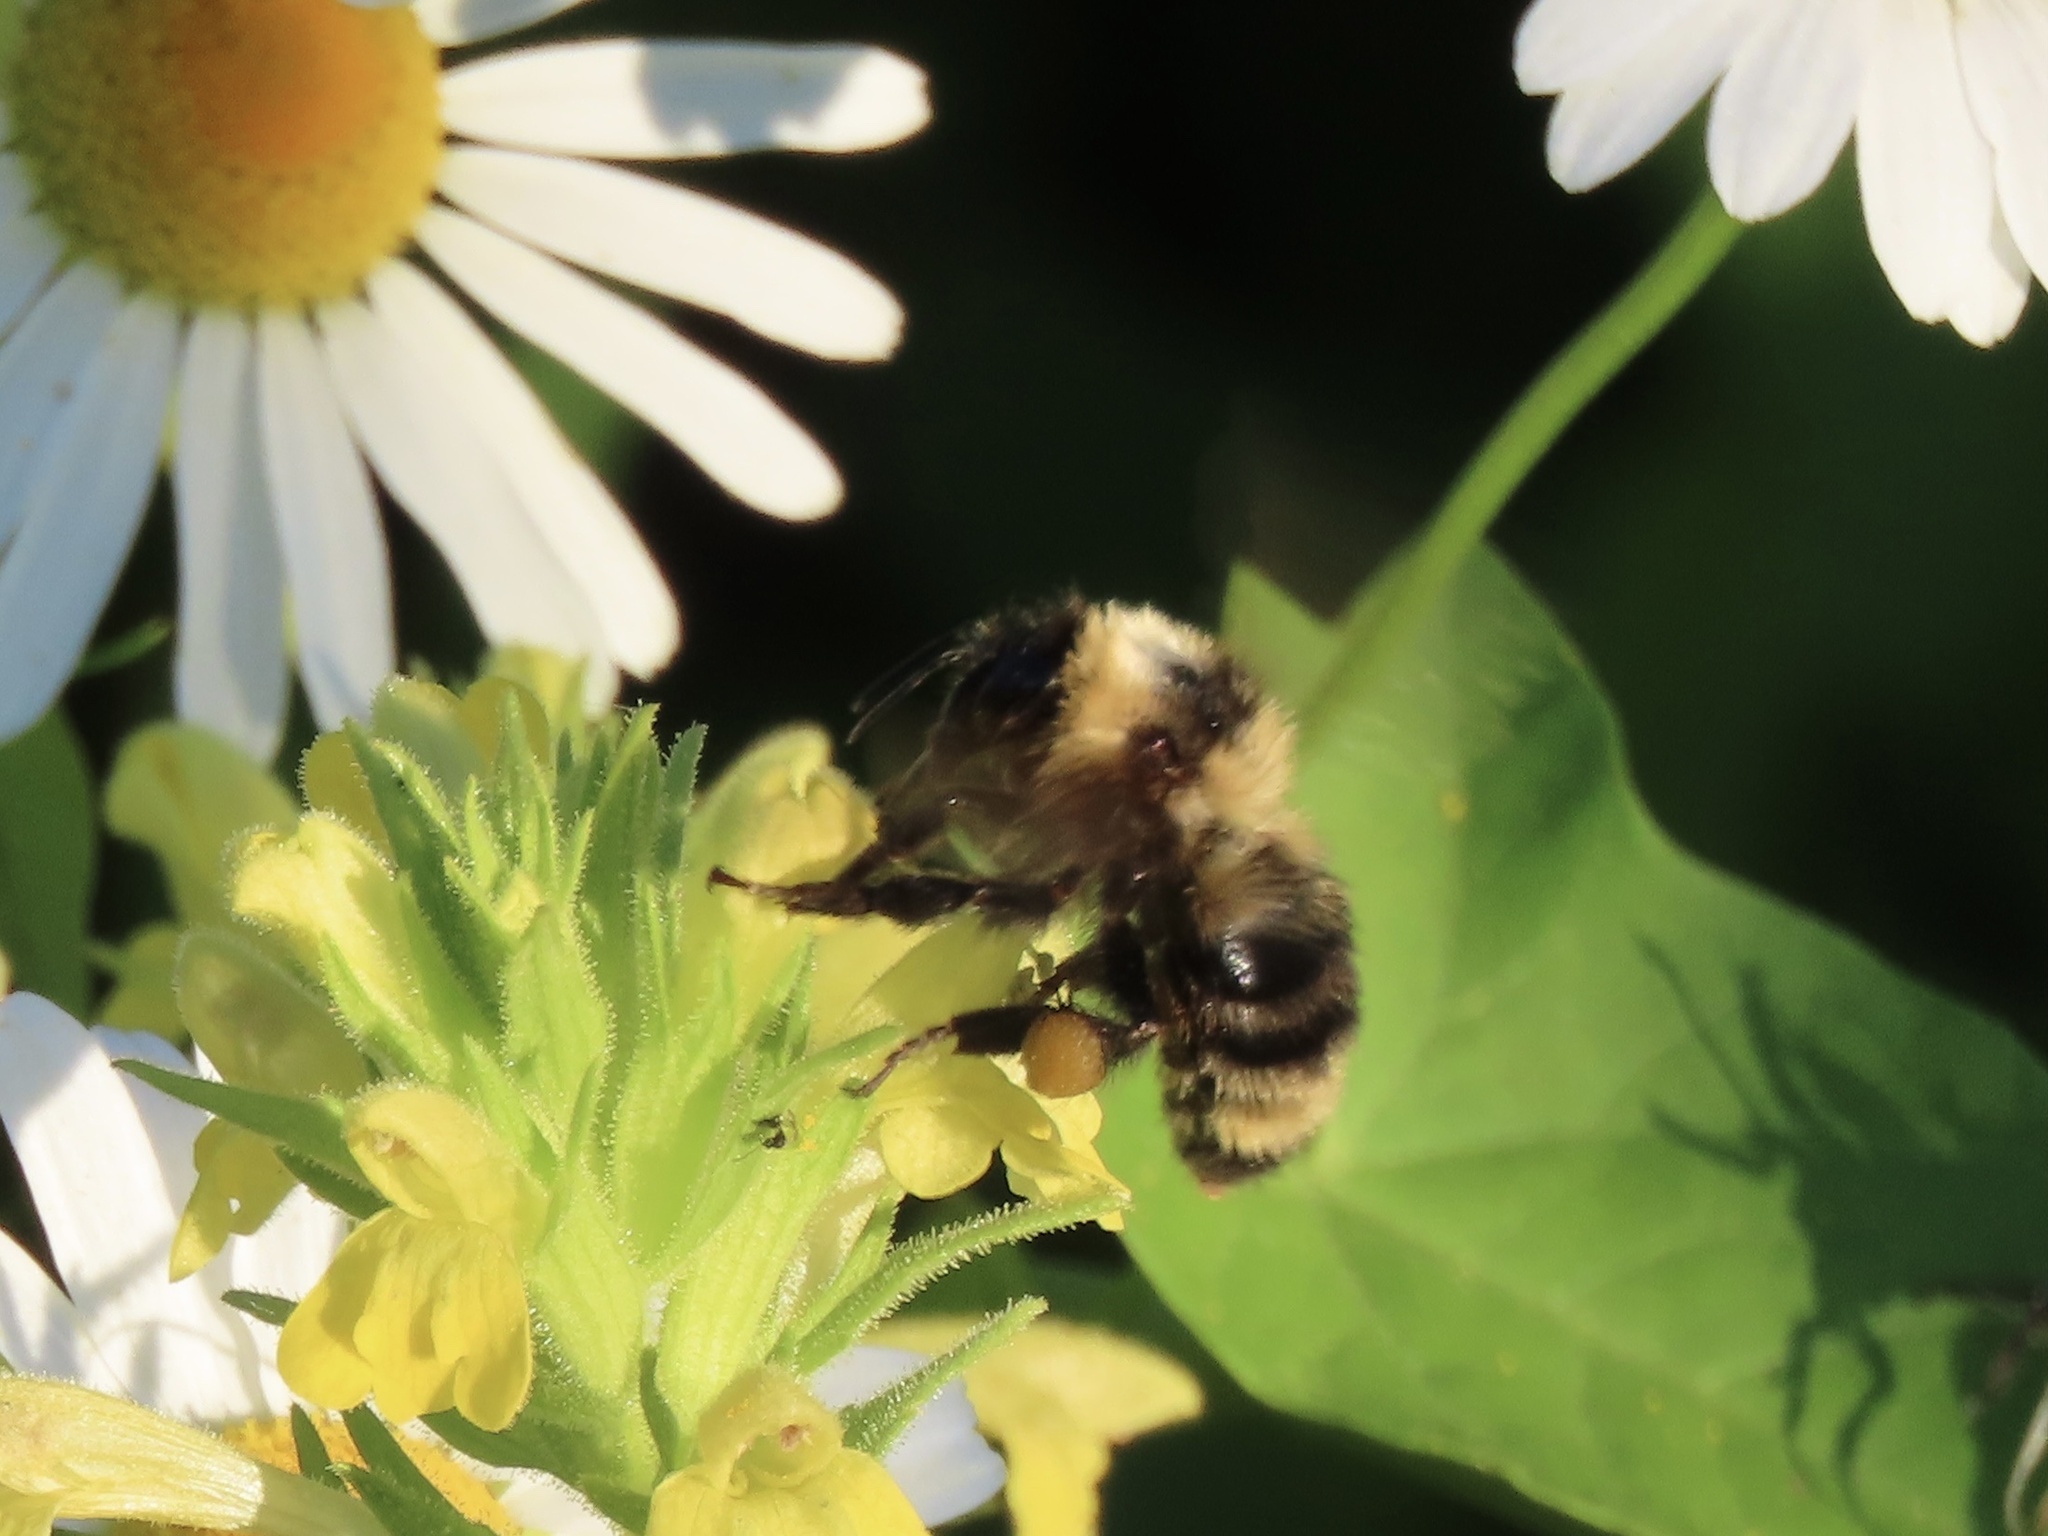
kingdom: Animalia
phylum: Arthropoda
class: Insecta
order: Hymenoptera
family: Apidae
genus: Bombus
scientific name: Bombus californicus
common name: California bumble bee
